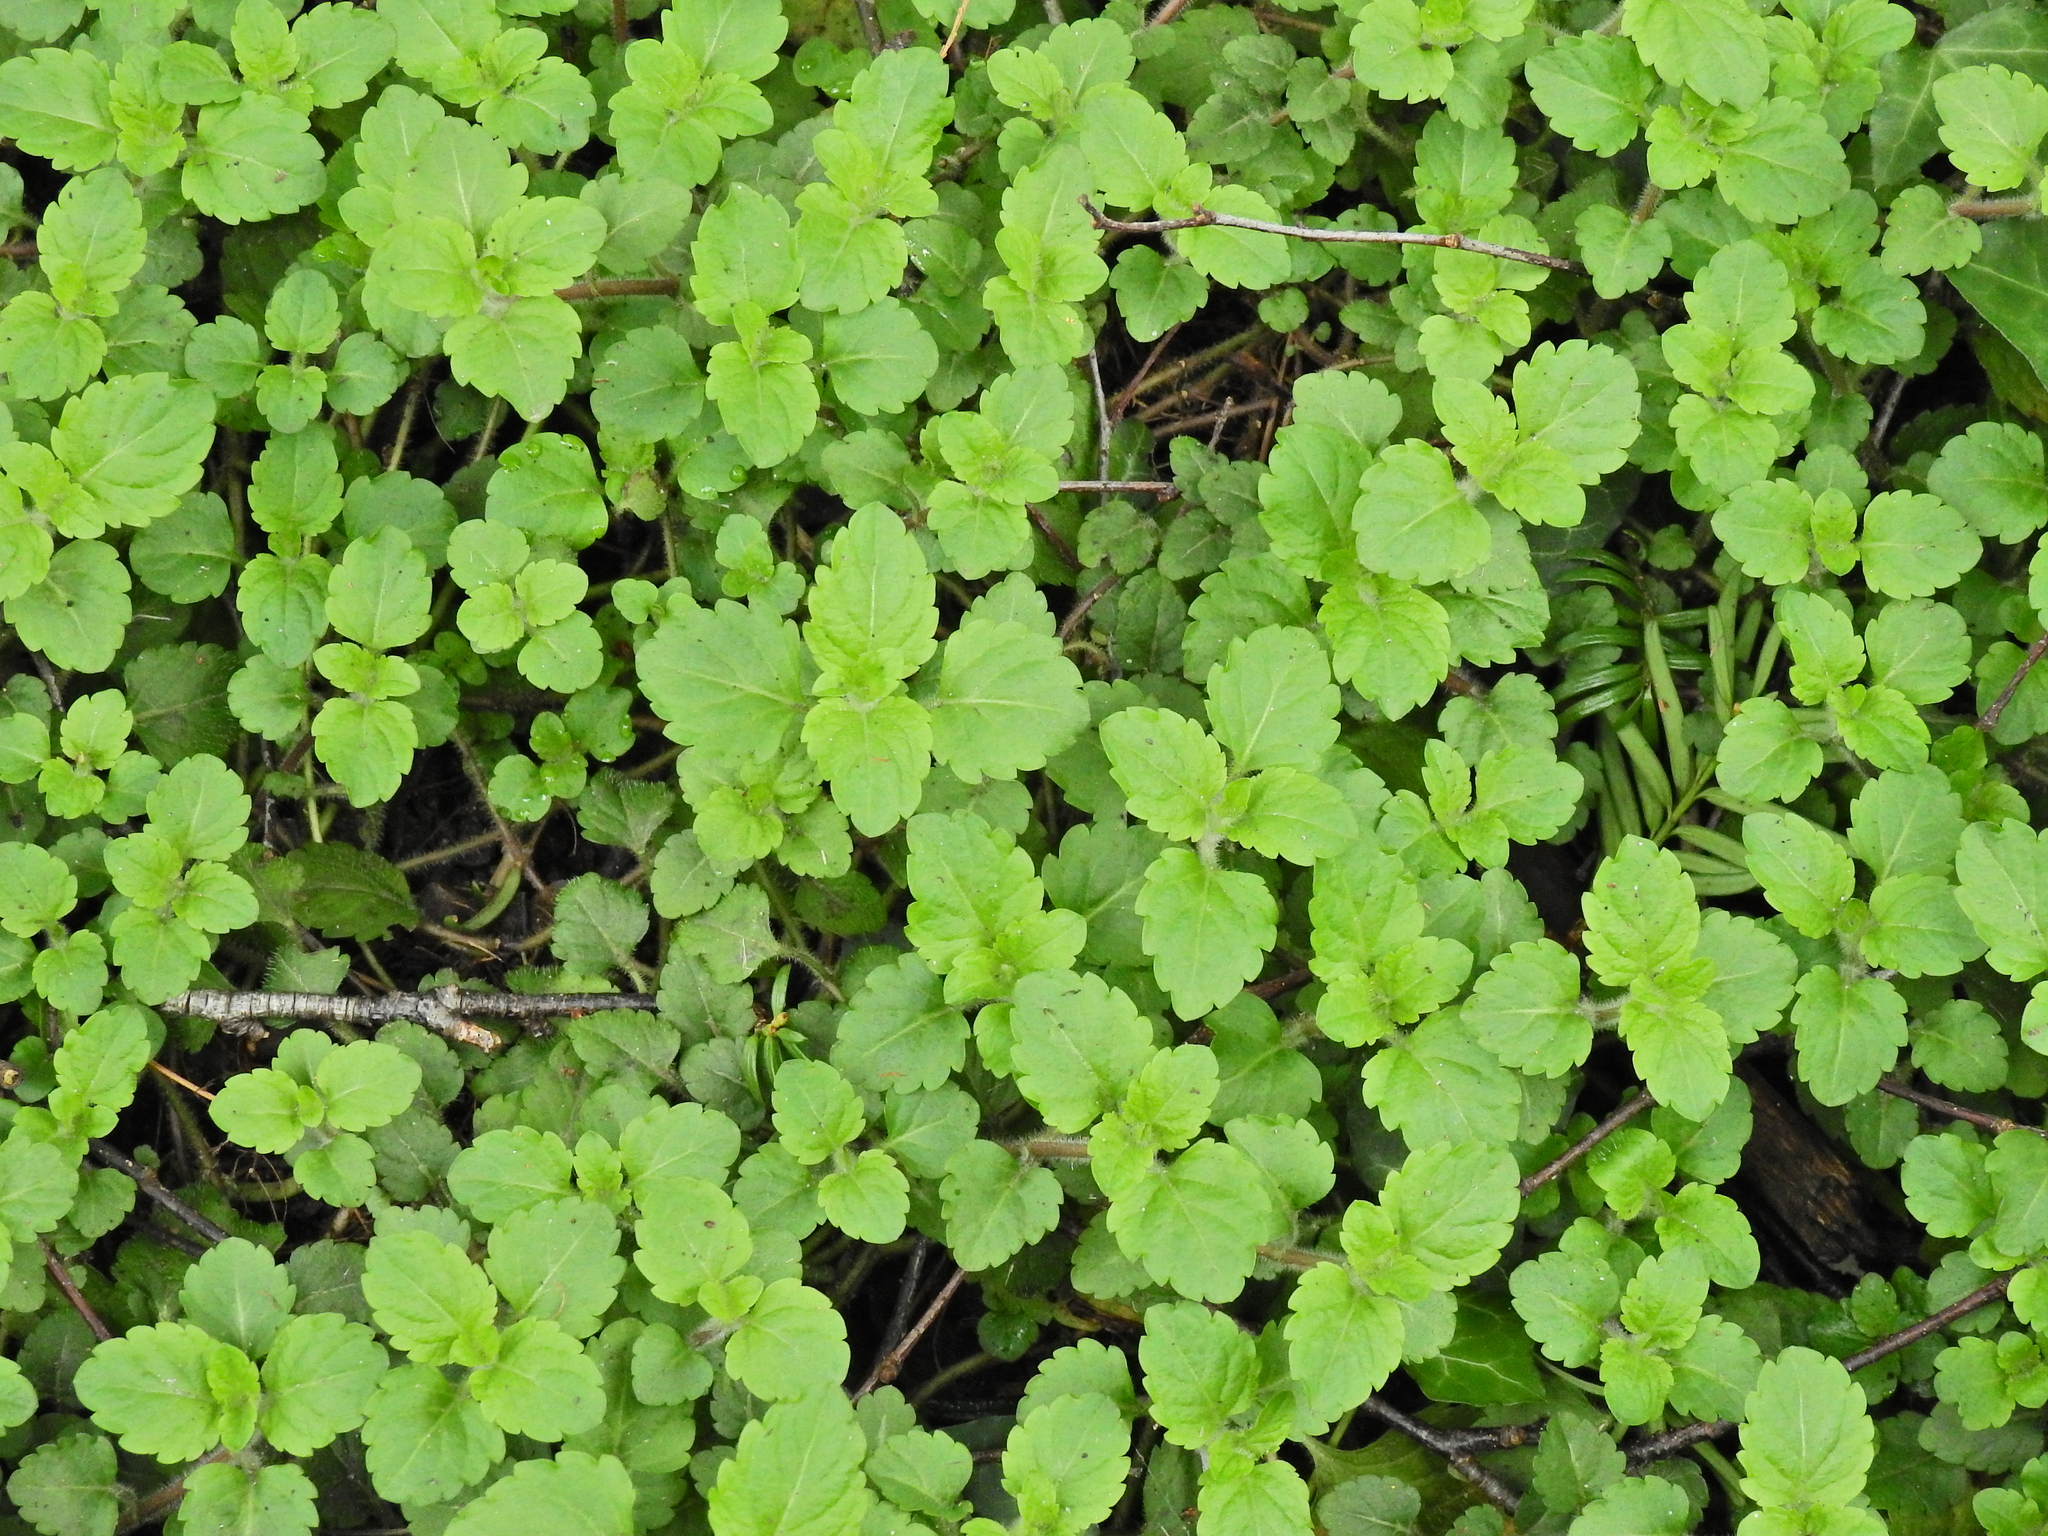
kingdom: Plantae
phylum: Tracheophyta
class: Magnoliopsida
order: Lamiales
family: Plantaginaceae
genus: Veronica
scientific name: Veronica montana
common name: Wood speedwell
